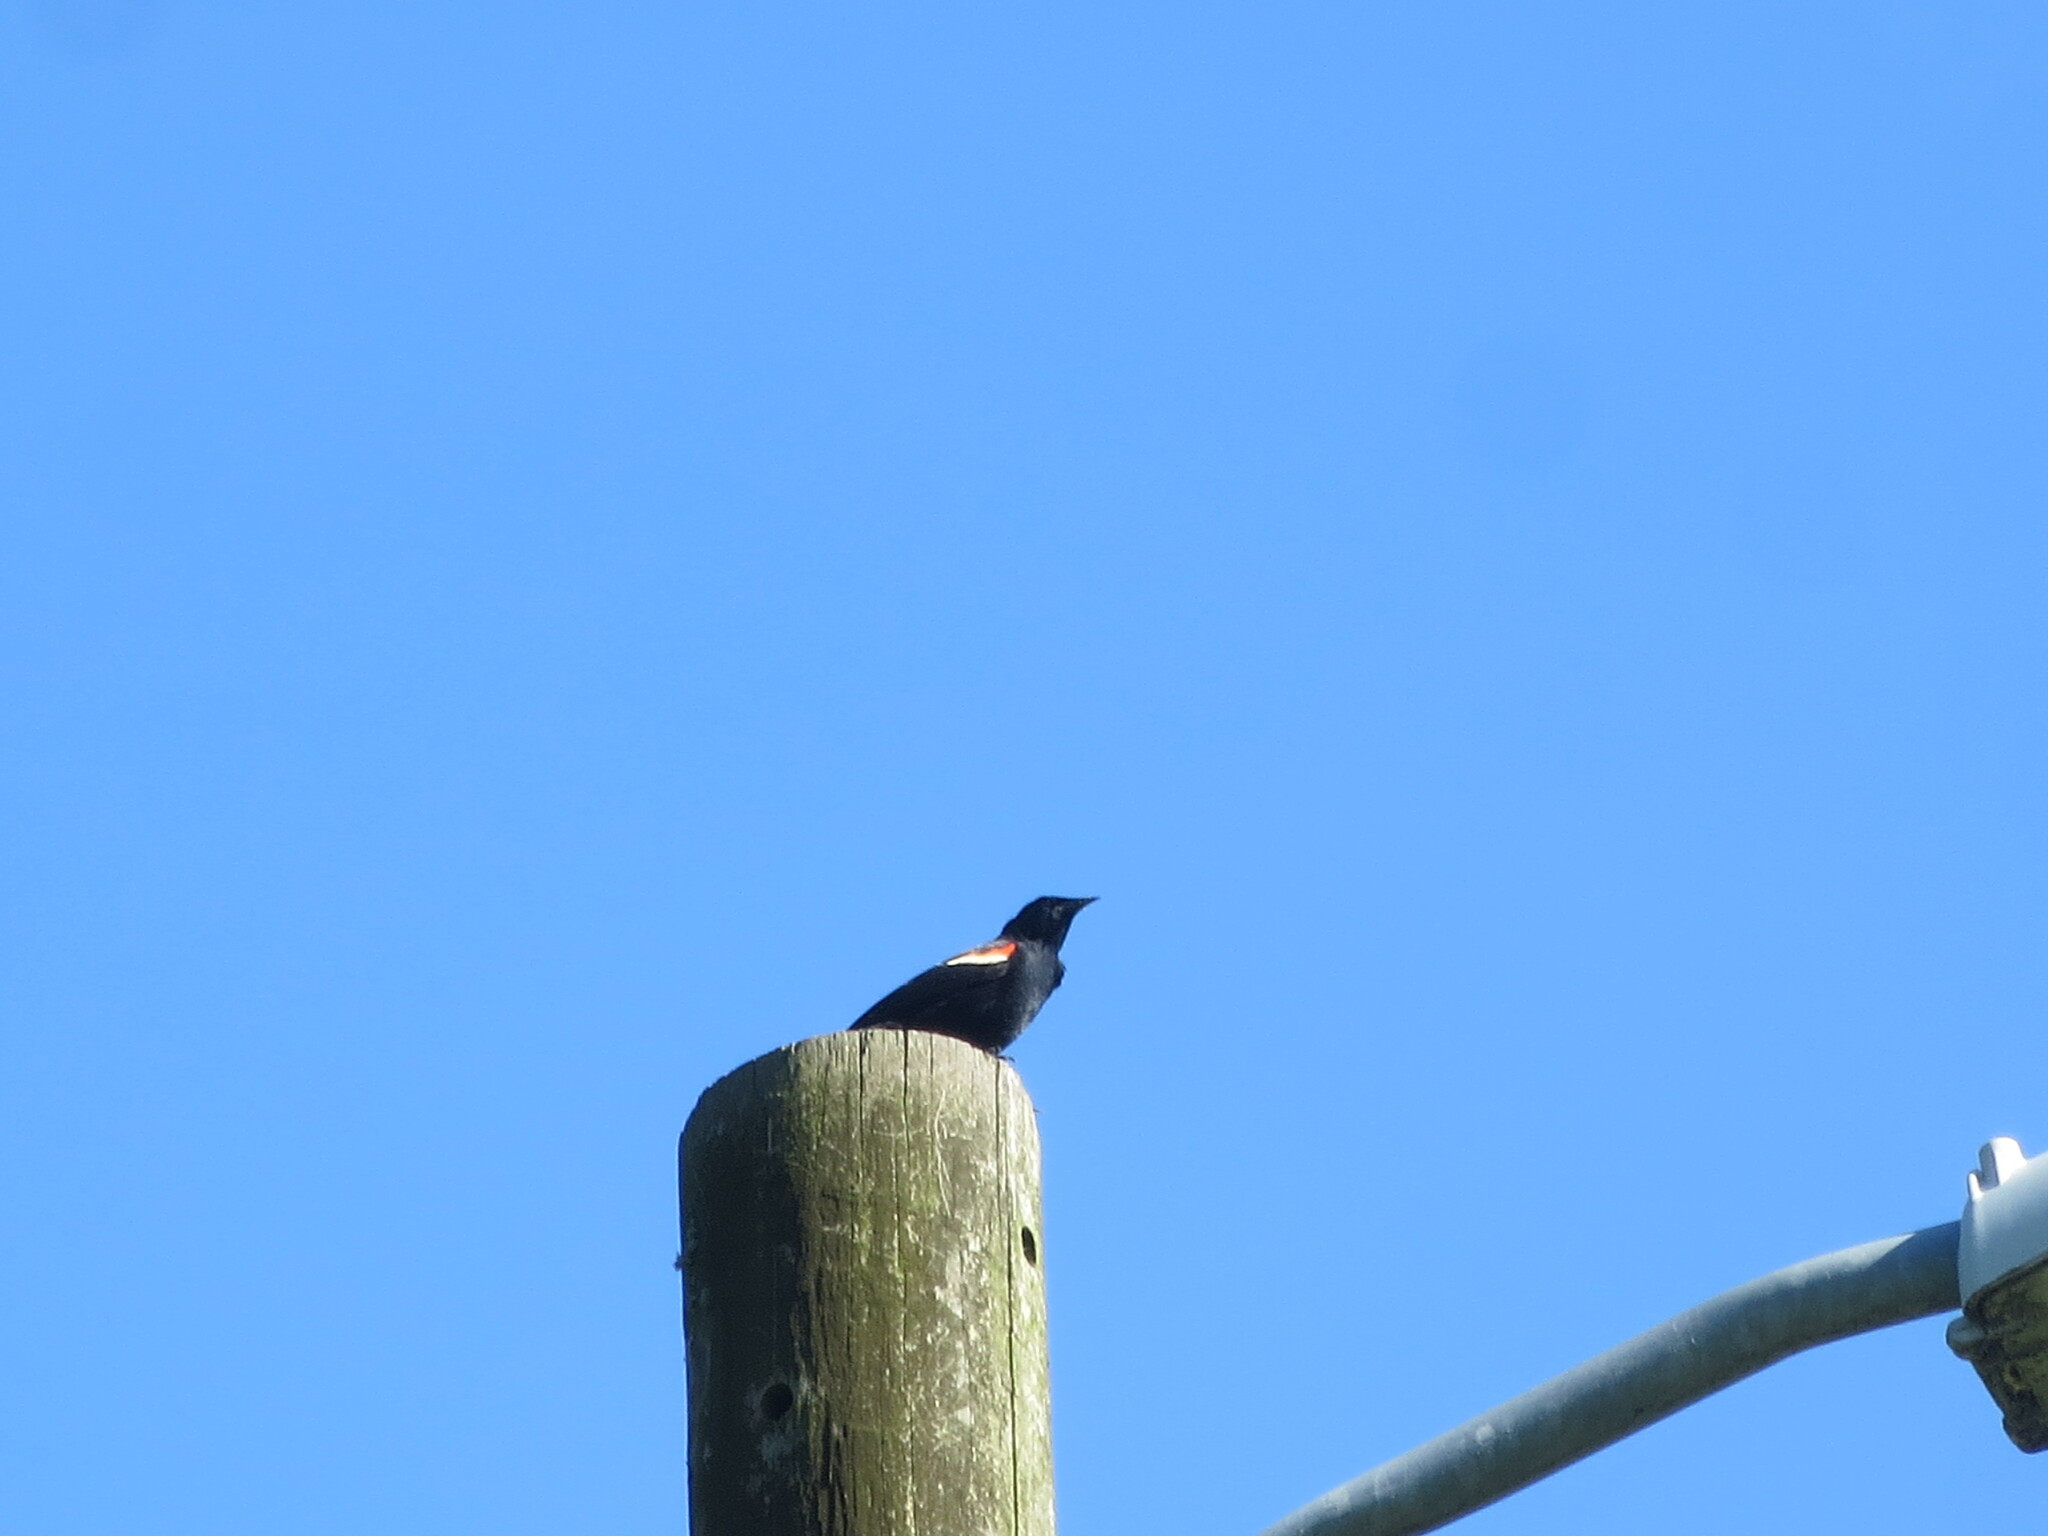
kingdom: Animalia
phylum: Chordata
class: Aves
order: Passeriformes
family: Icteridae
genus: Agelaius
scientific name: Agelaius phoeniceus
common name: Red-winged blackbird
